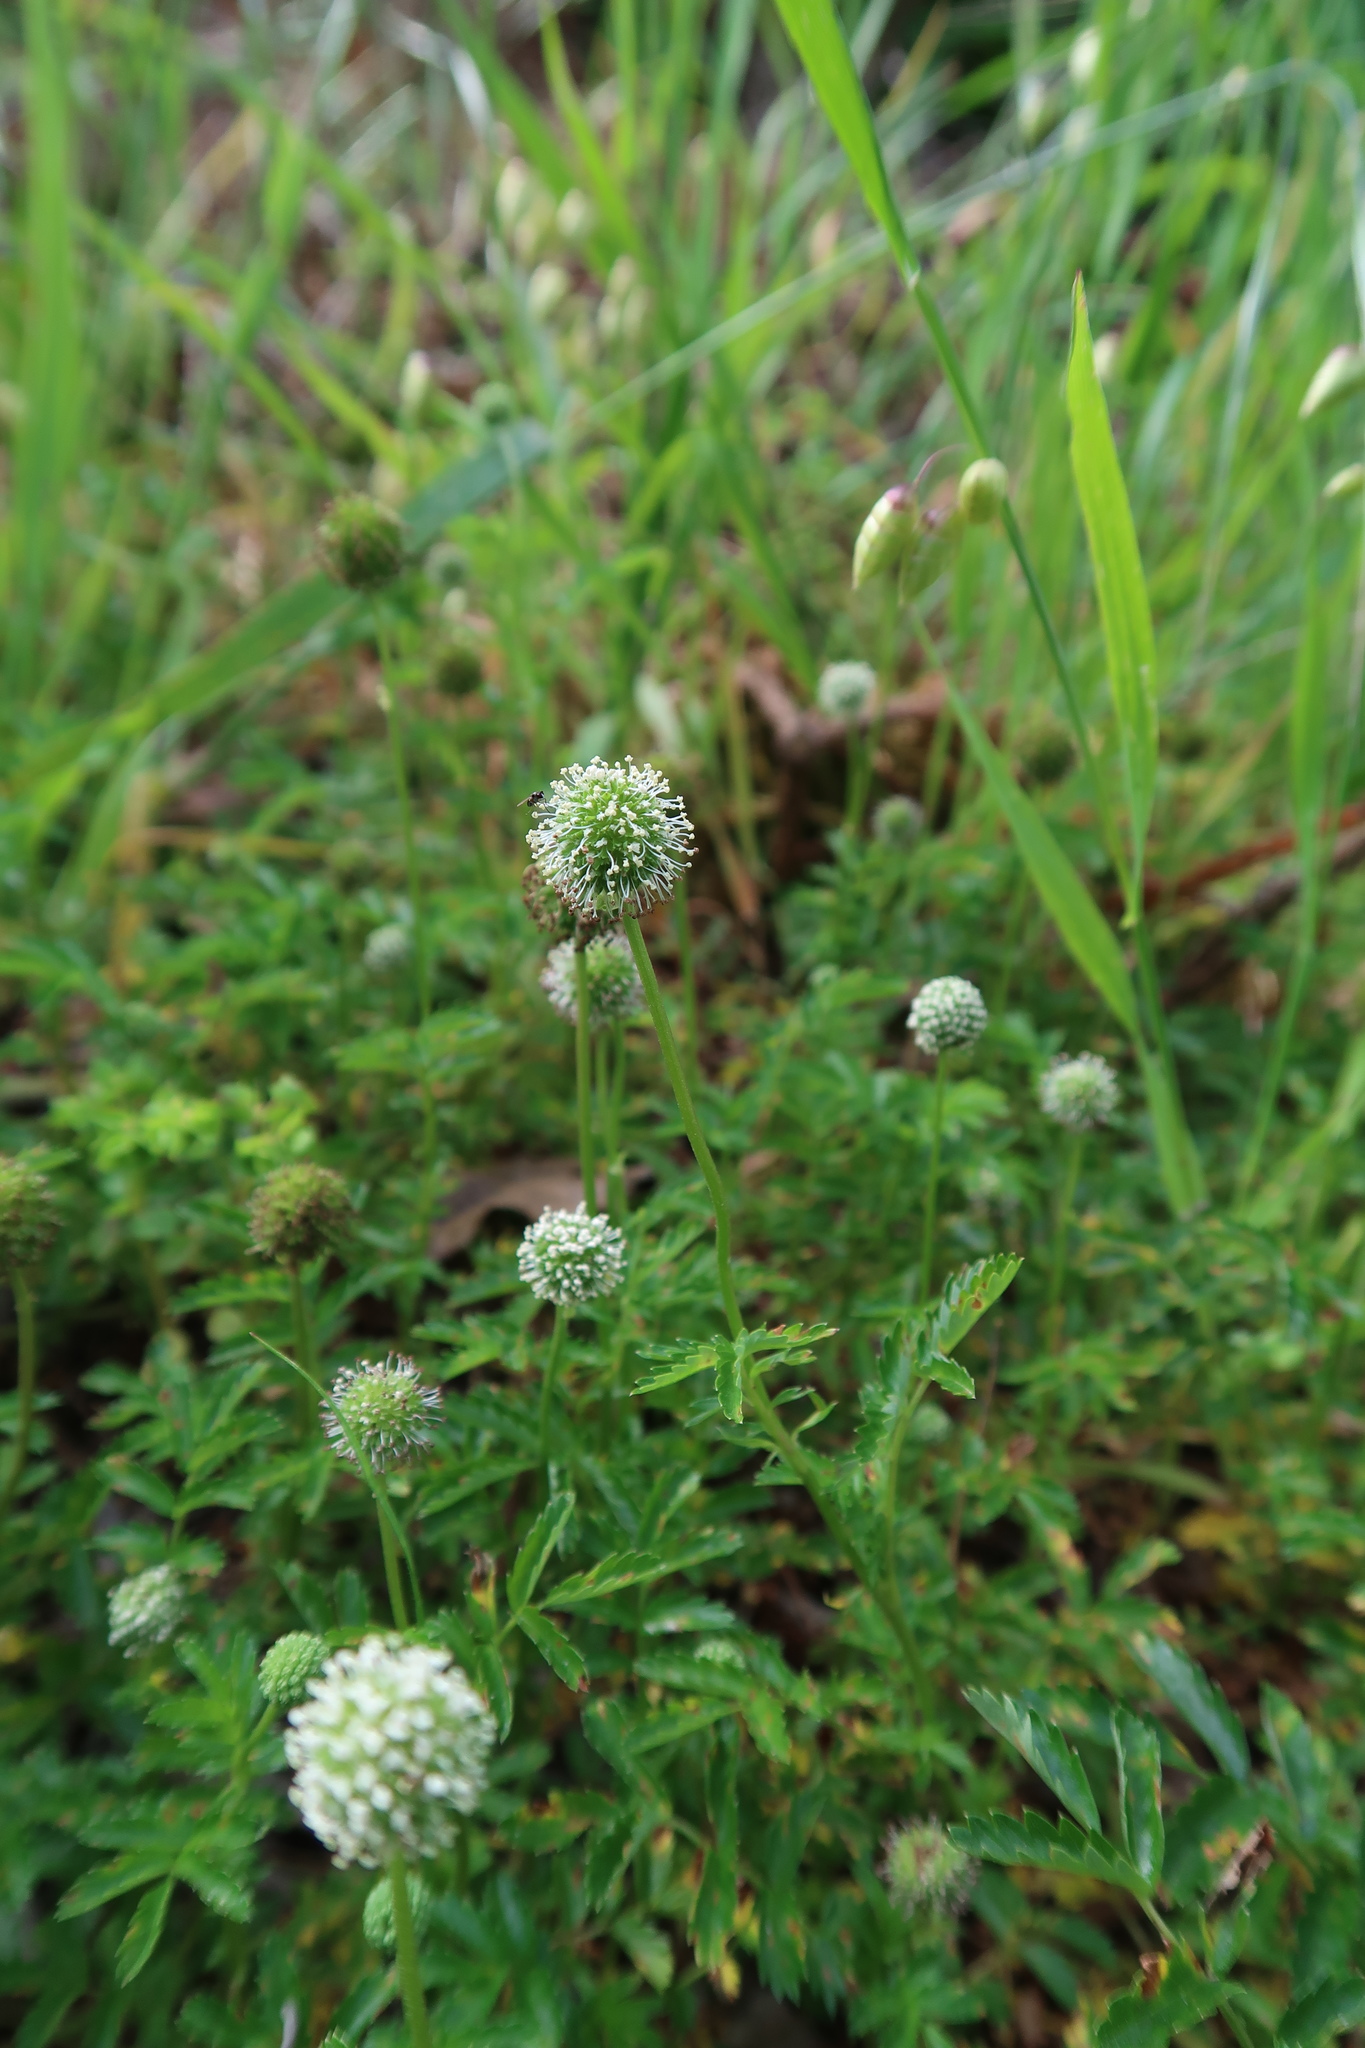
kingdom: Plantae
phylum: Tracheophyta
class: Magnoliopsida
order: Rosales
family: Rosaceae
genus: Acaena
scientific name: Acaena novae-zelandiae
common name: Pirri-pirri-bur
